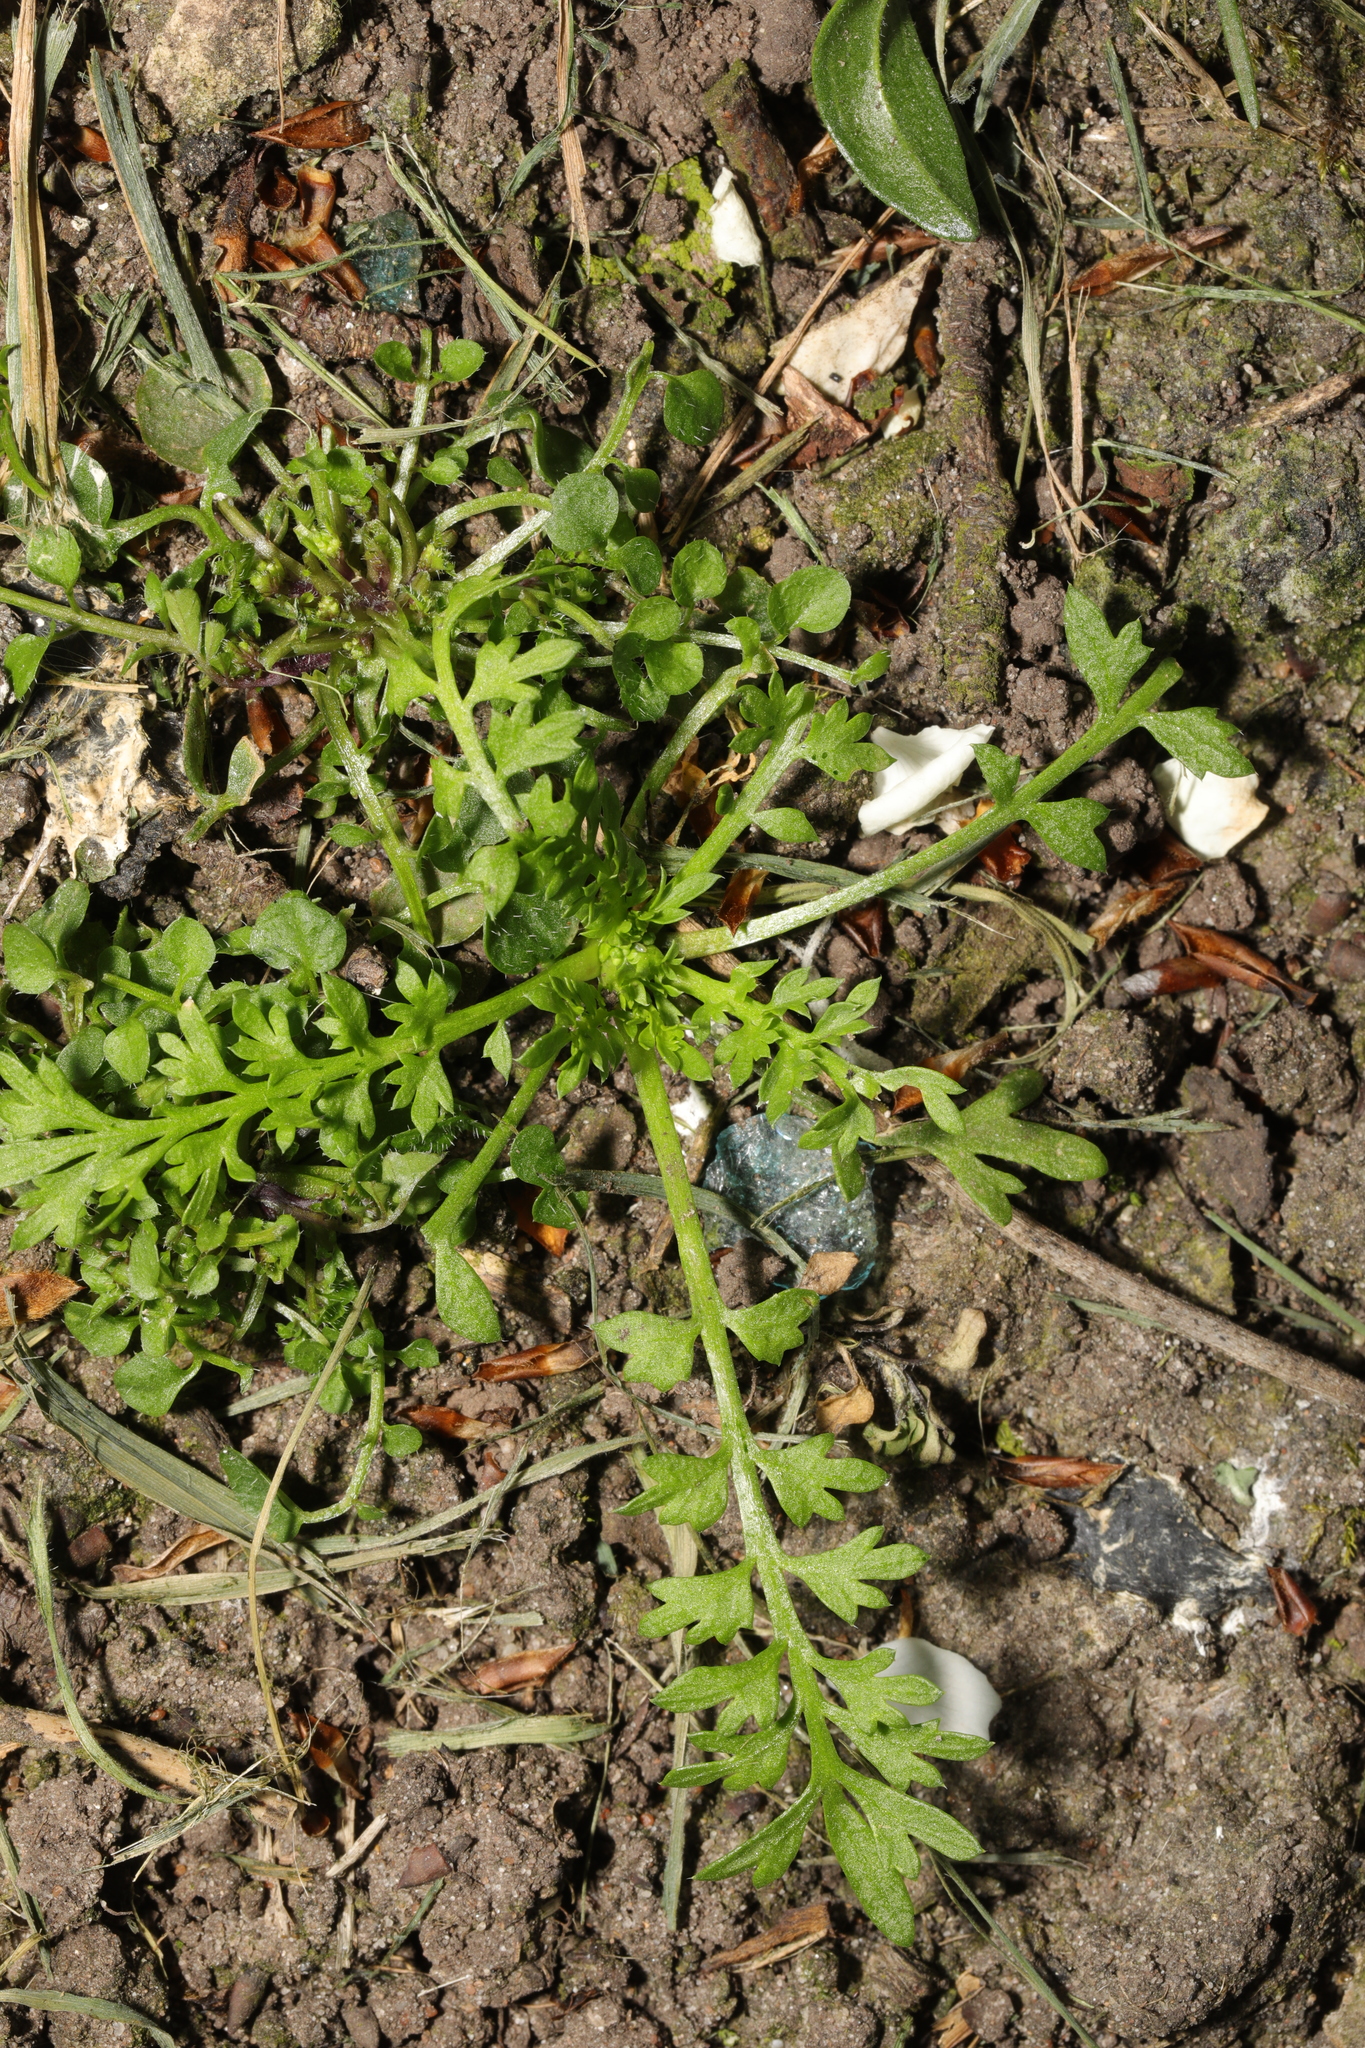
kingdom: Plantae
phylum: Tracheophyta
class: Magnoliopsida
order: Brassicales
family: Brassicaceae
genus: Lepidium
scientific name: Lepidium didymum
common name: Lesser swinecress
